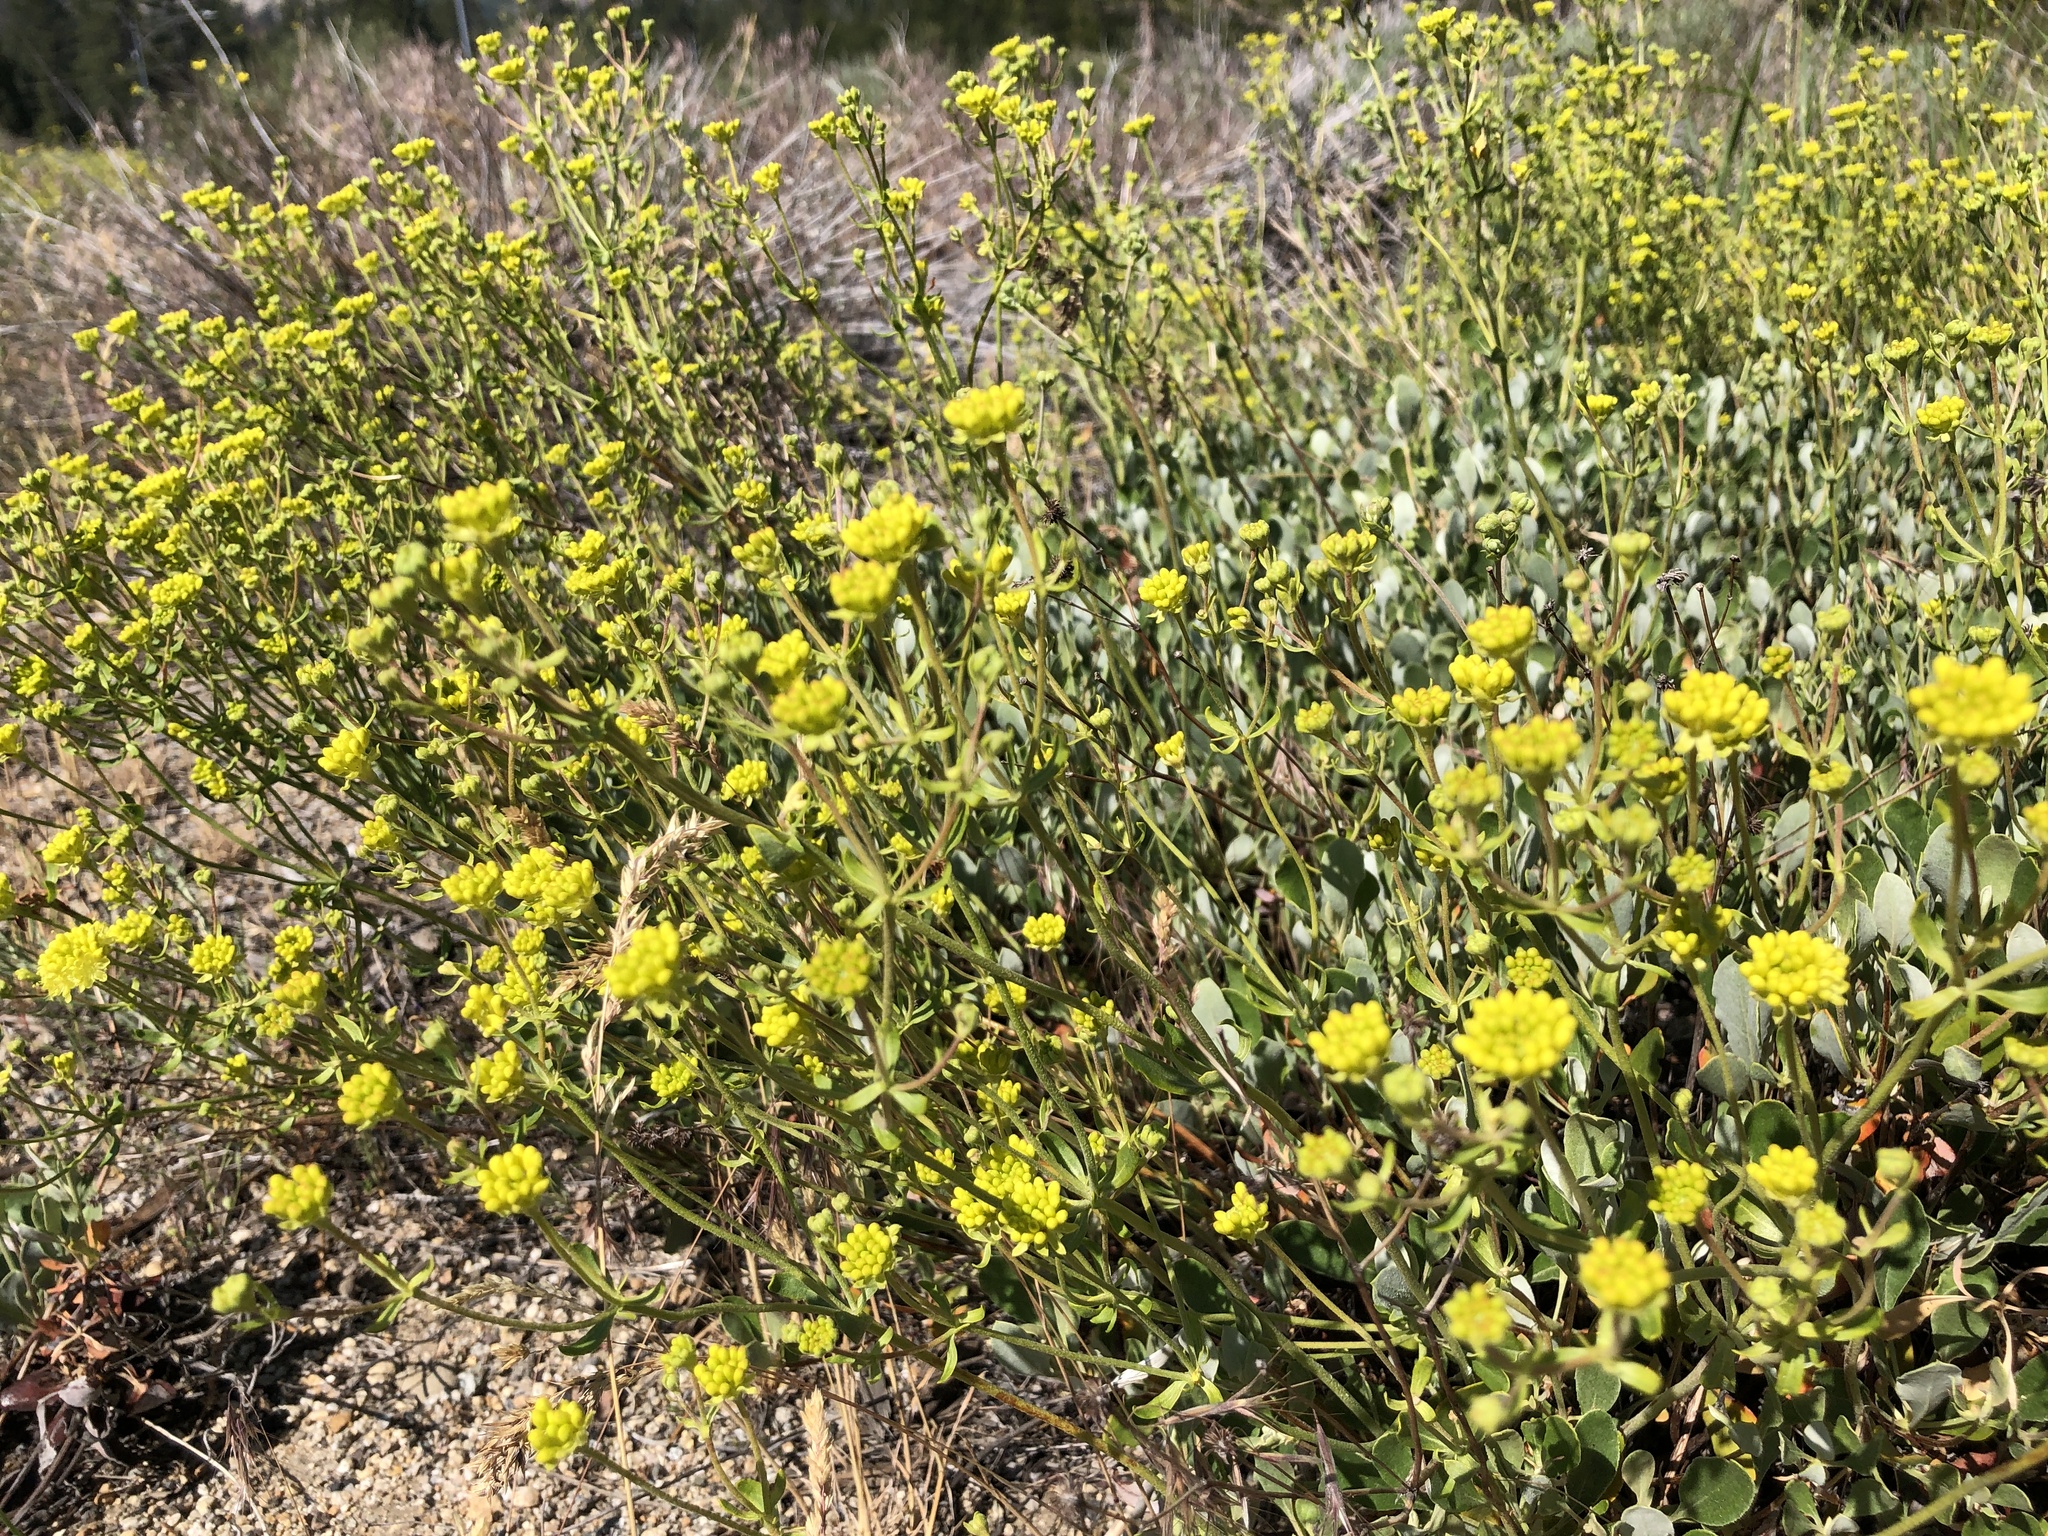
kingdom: Plantae
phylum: Tracheophyta
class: Magnoliopsida
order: Caryophyllales
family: Polygonaceae
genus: Eriogonum
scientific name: Eriogonum umbellatum
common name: Sulfur-buckwheat
